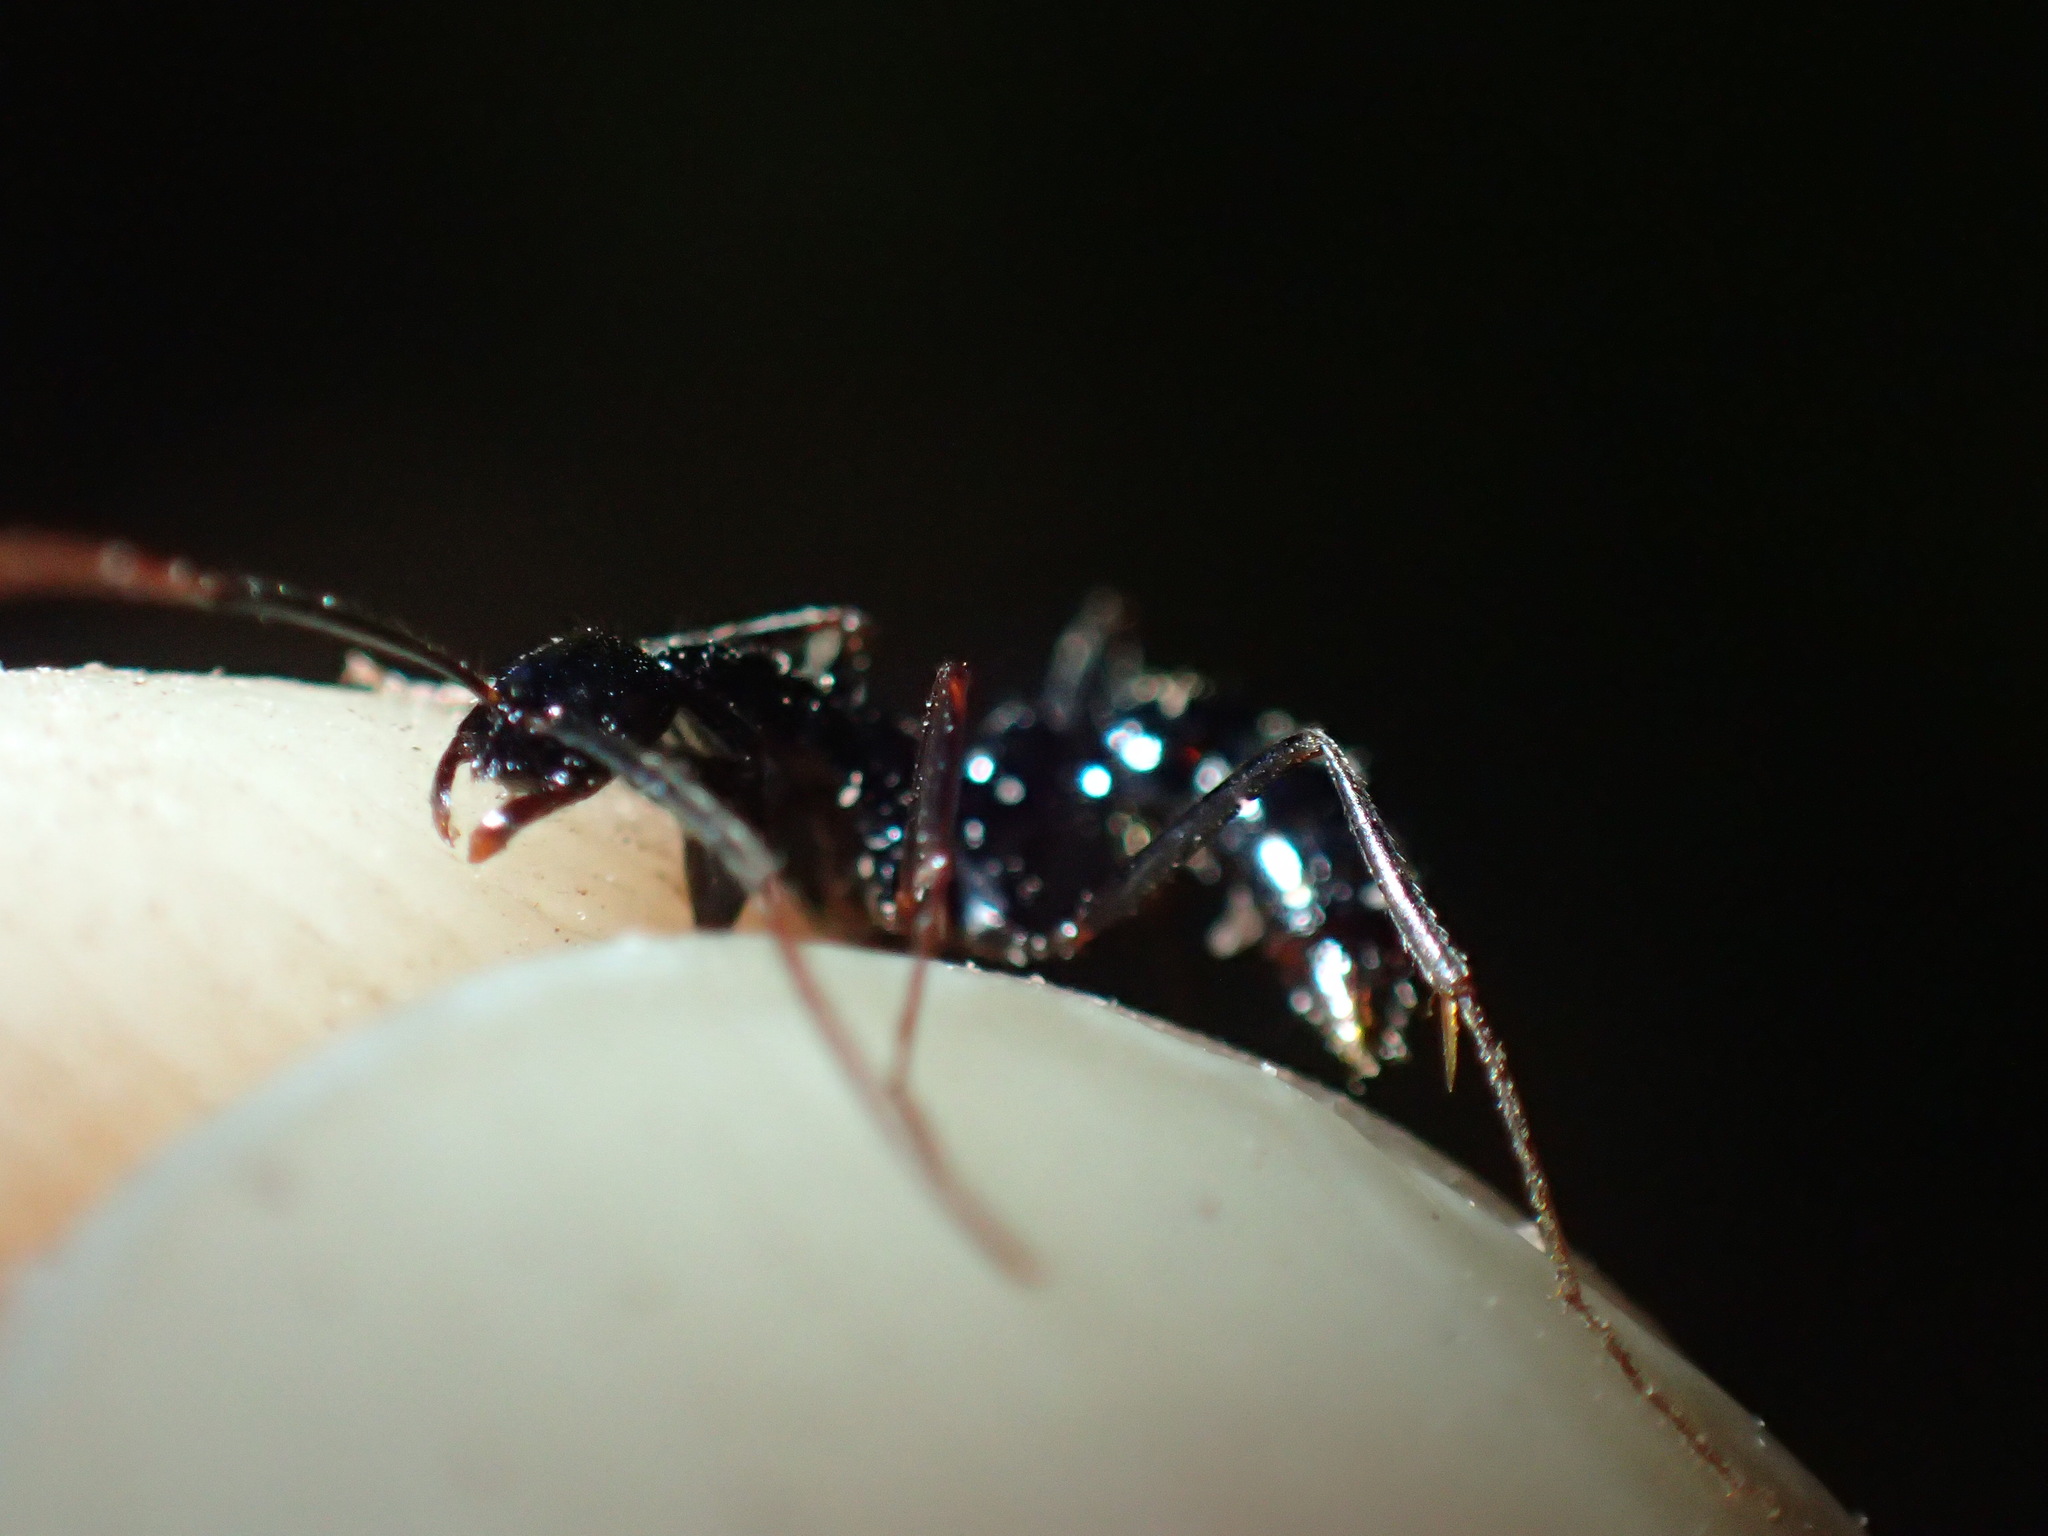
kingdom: Animalia
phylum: Arthropoda
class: Insecta
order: Hymenoptera
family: Formicidae
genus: Leptogenys
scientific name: Leptogenys attenuata
